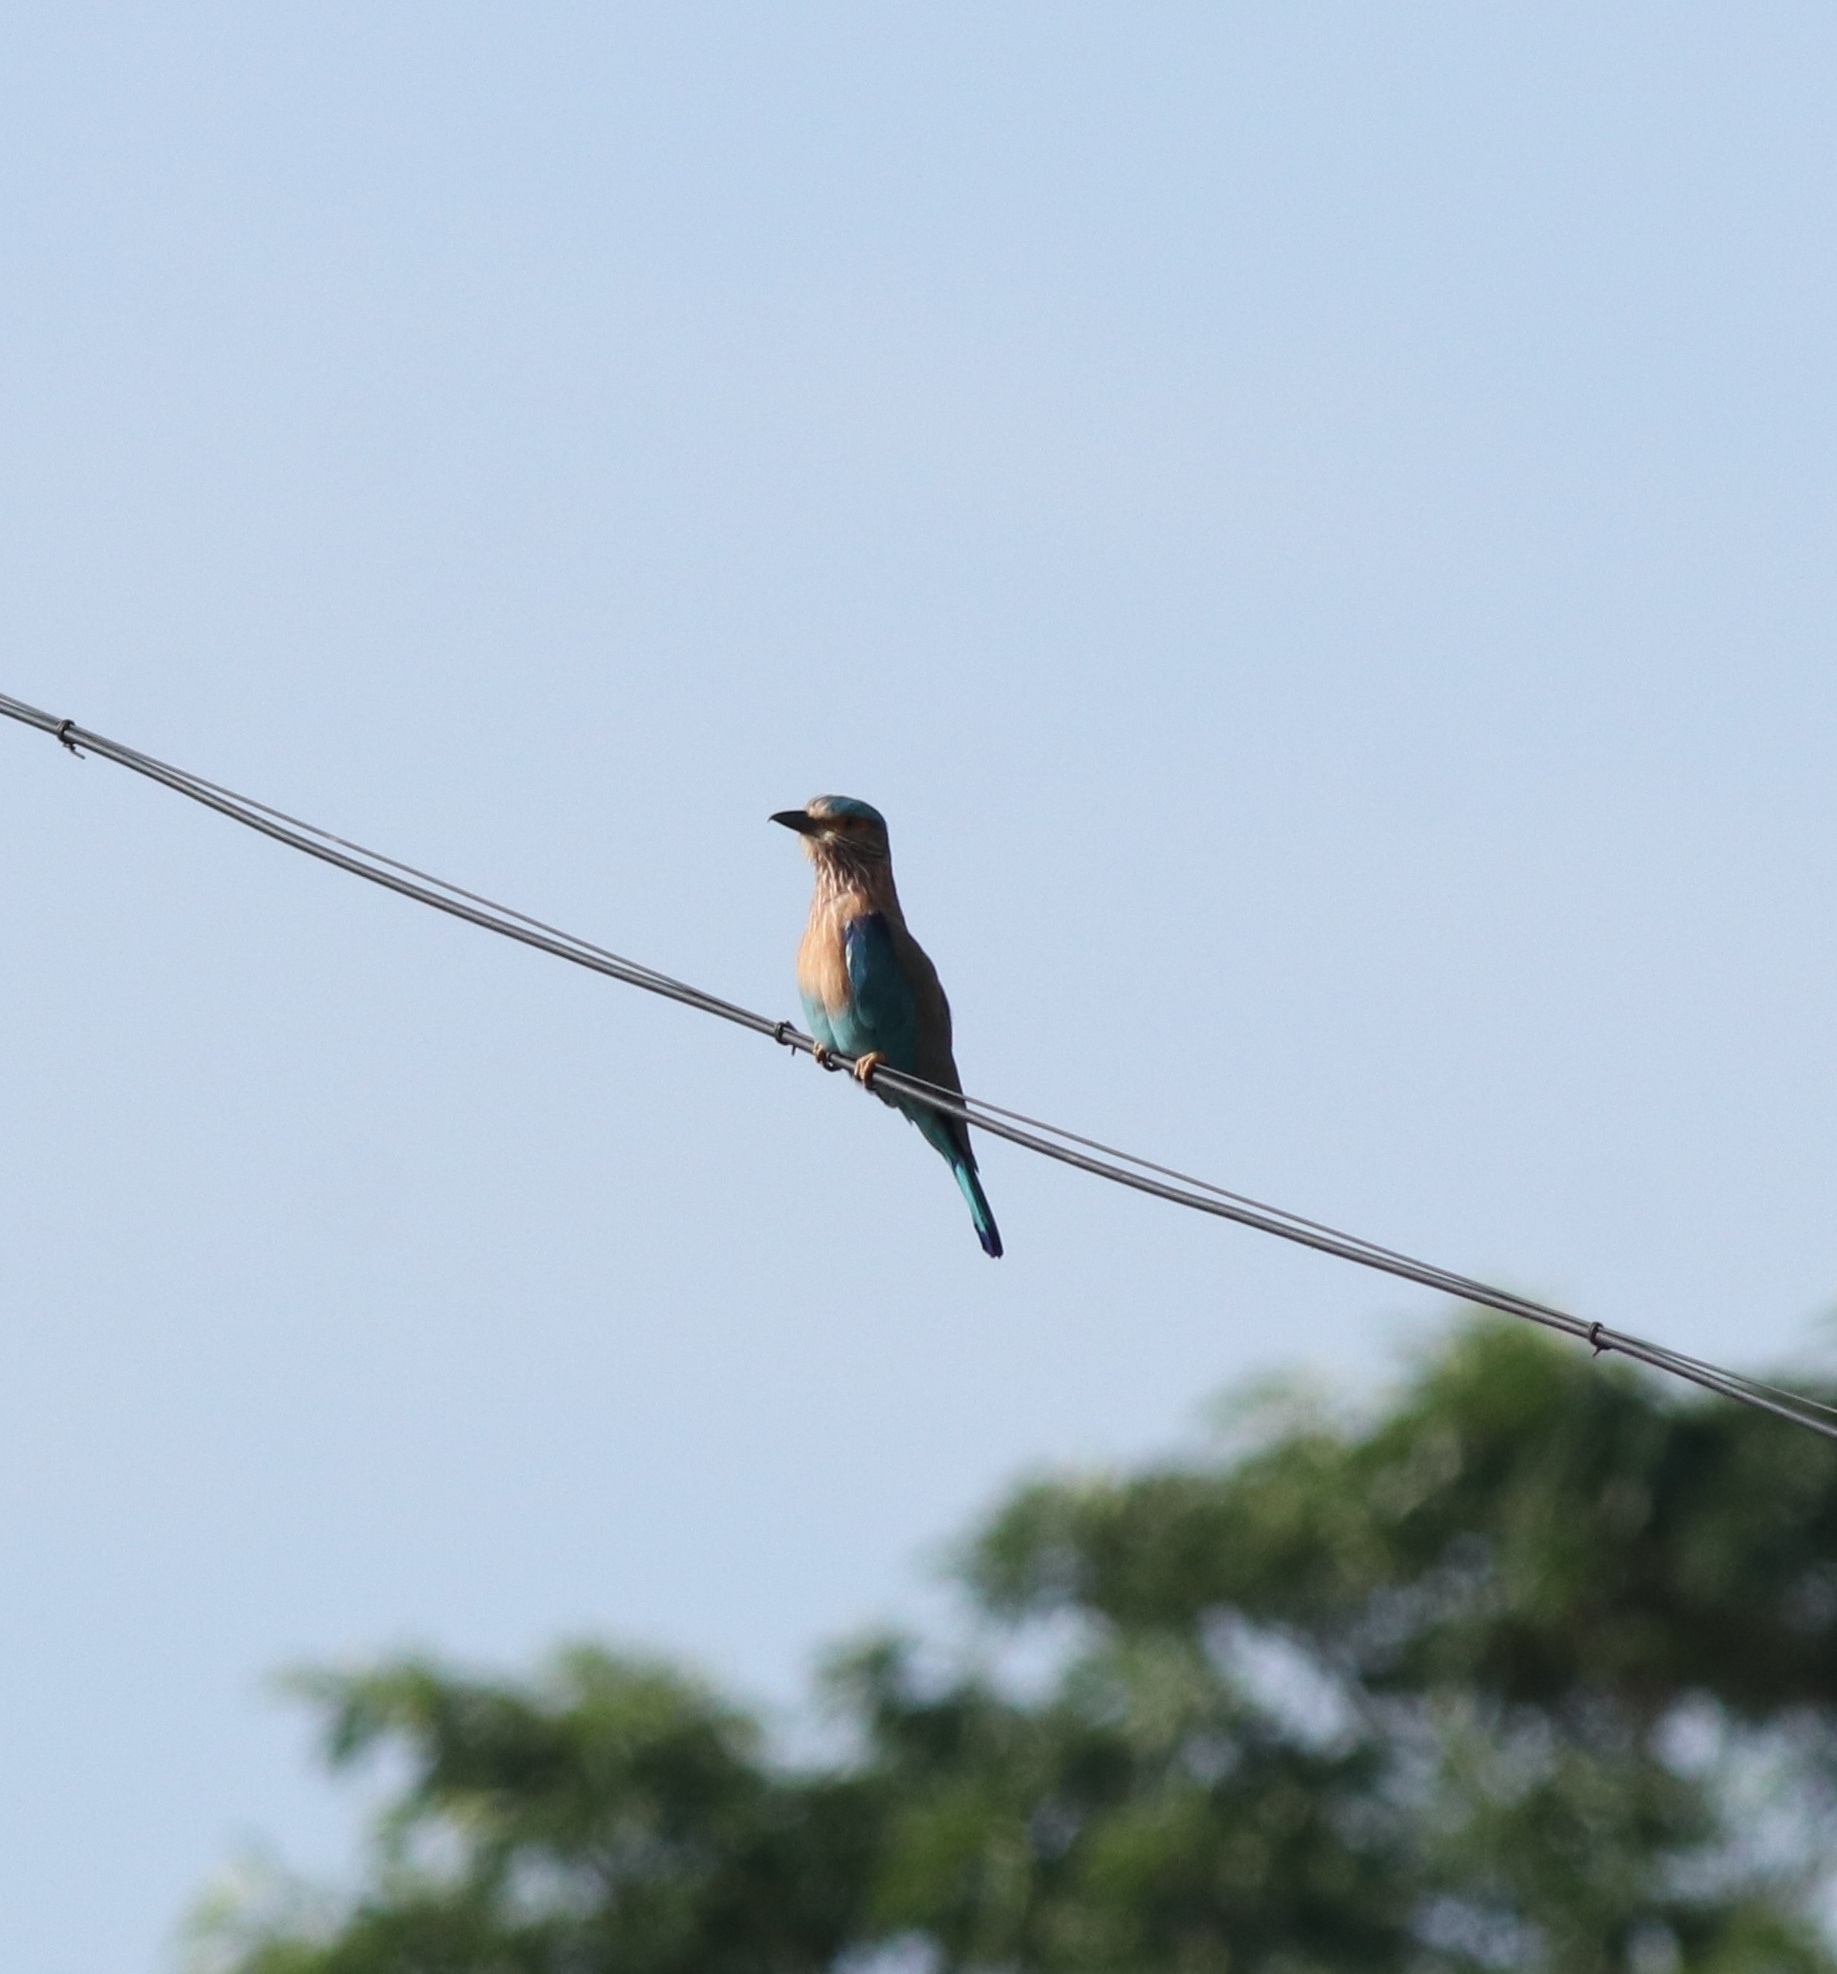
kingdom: Animalia
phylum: Chordata
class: Aves
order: Coraciiformes
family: Coraciidae
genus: Coracias
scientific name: Coracias benghalensis
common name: Indian roller
